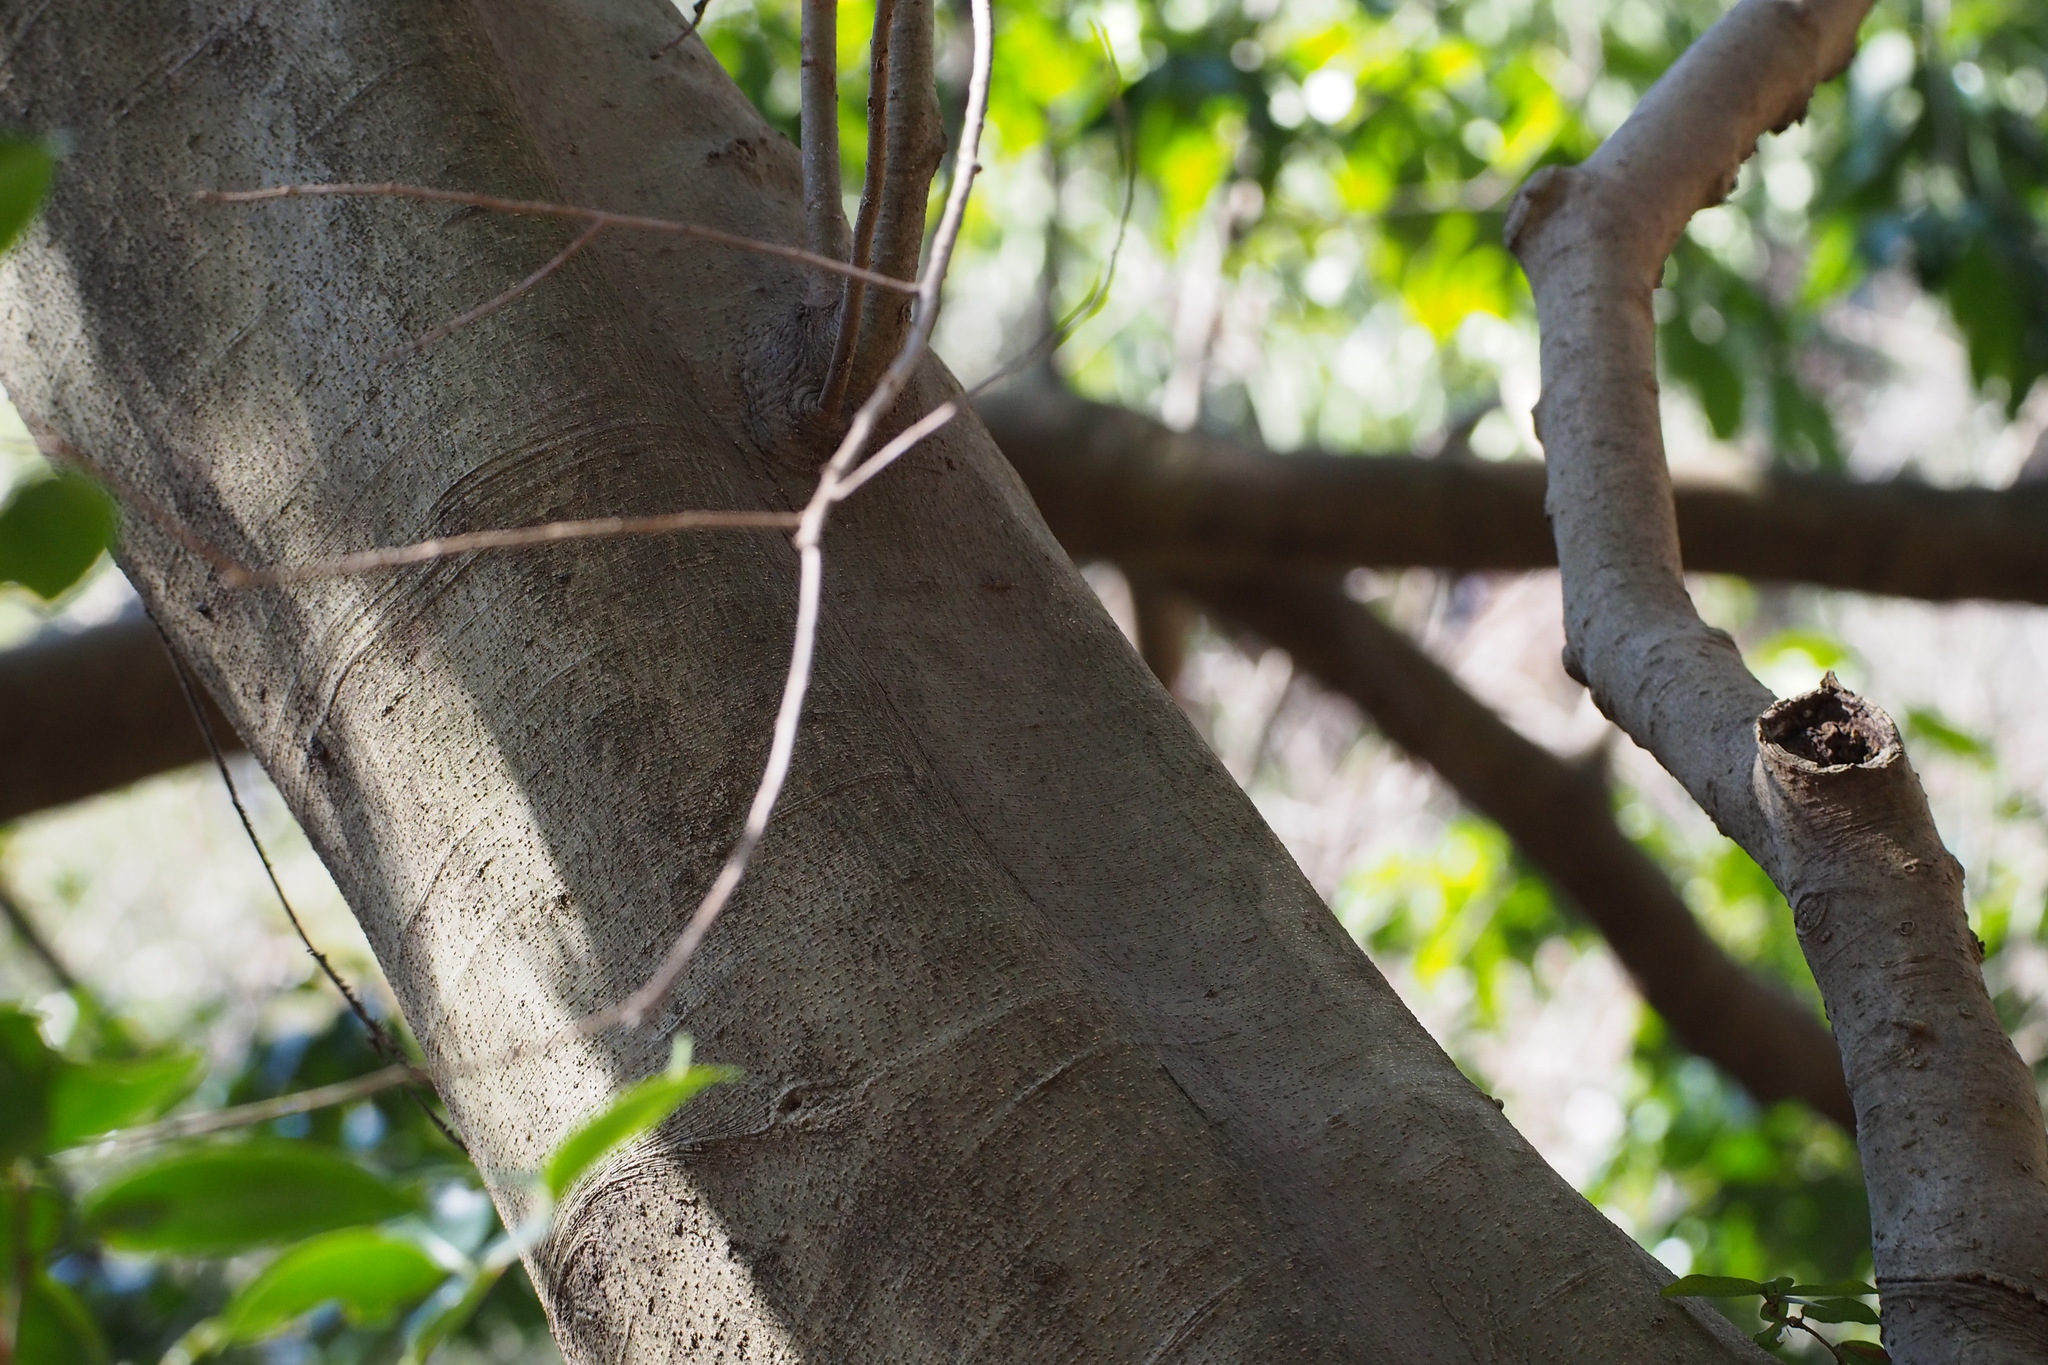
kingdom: Plantae
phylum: Tracheophyta
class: Magnoliopsida
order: Aquifoliales
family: Aquifoliaceae
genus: Ilex
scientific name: Ilex chinensis
